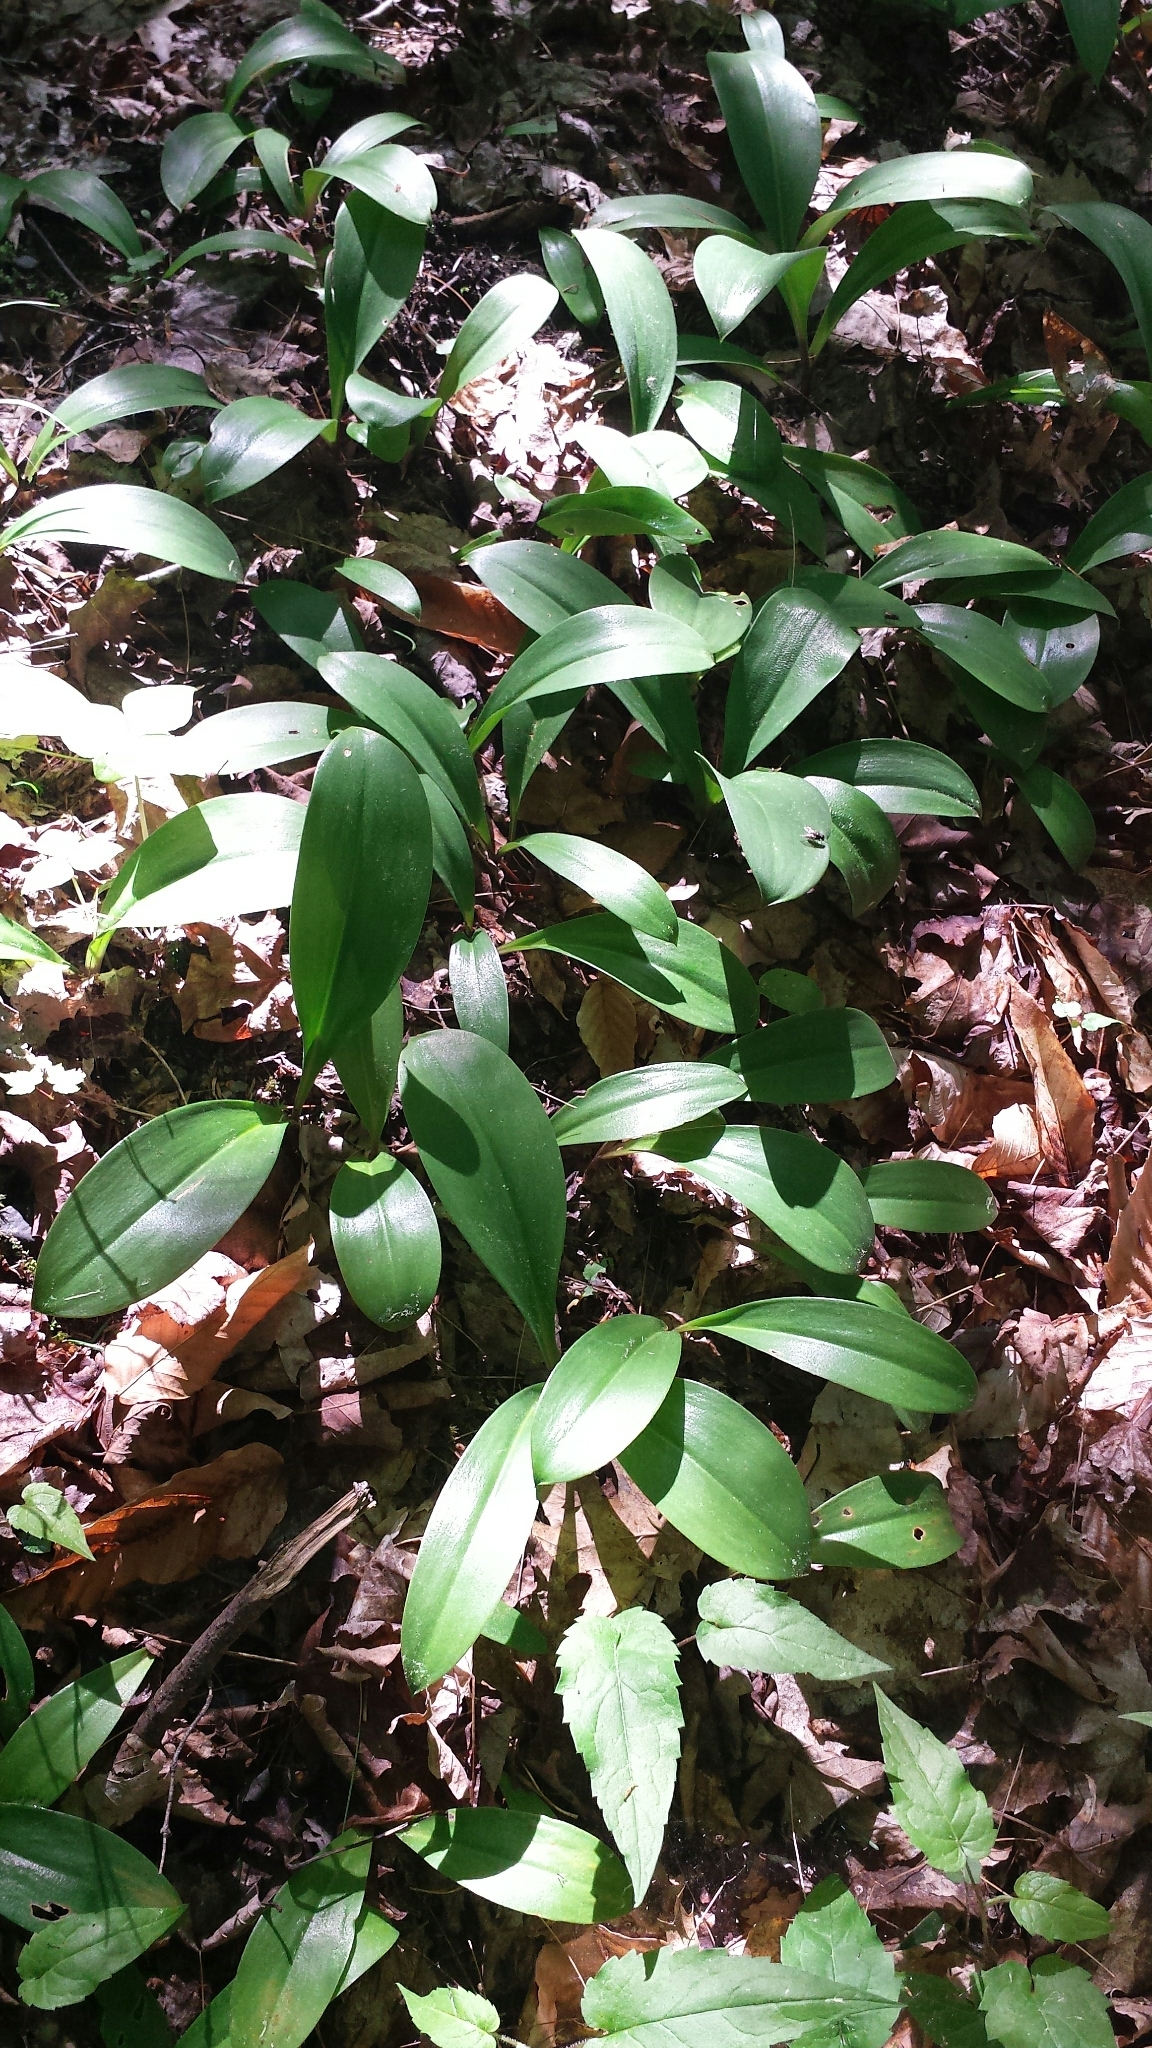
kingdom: Plantae
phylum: Tracheophyta
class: Liliopsida
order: Liliales
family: Liliaceae
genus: Clintonia
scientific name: Clintonia borealis
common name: Yellow clintonia
